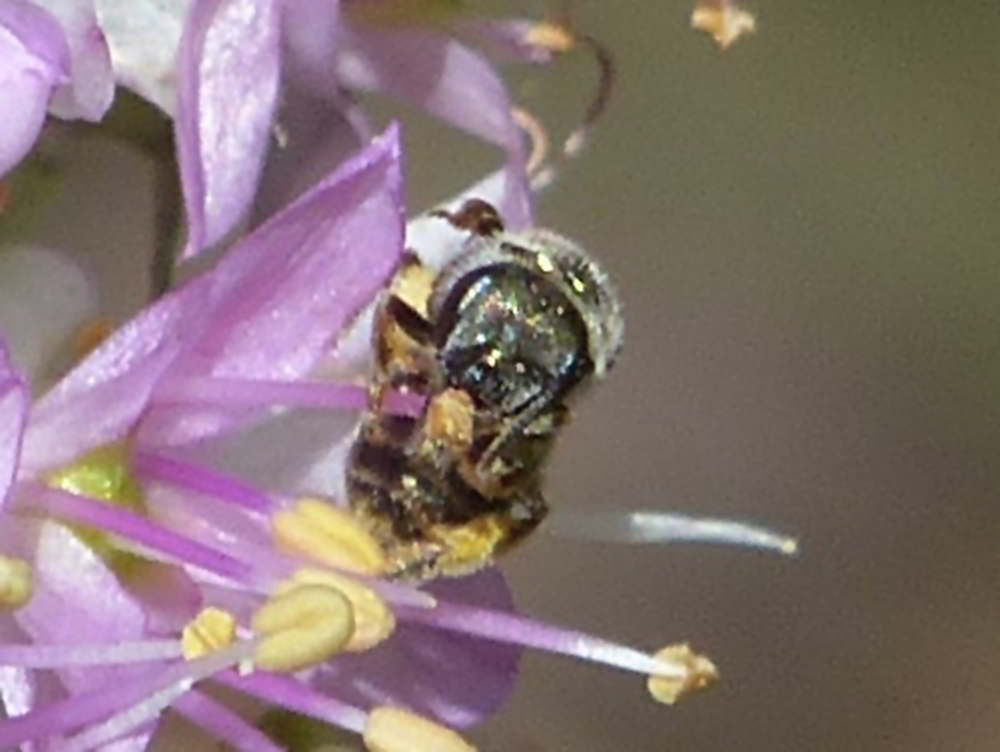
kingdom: Animalia
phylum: Arthropoda
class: Insecta
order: Hymenoptera
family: Halictidae
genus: Halictus
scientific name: Halictus confusus
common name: Southern bronze furrow bee
